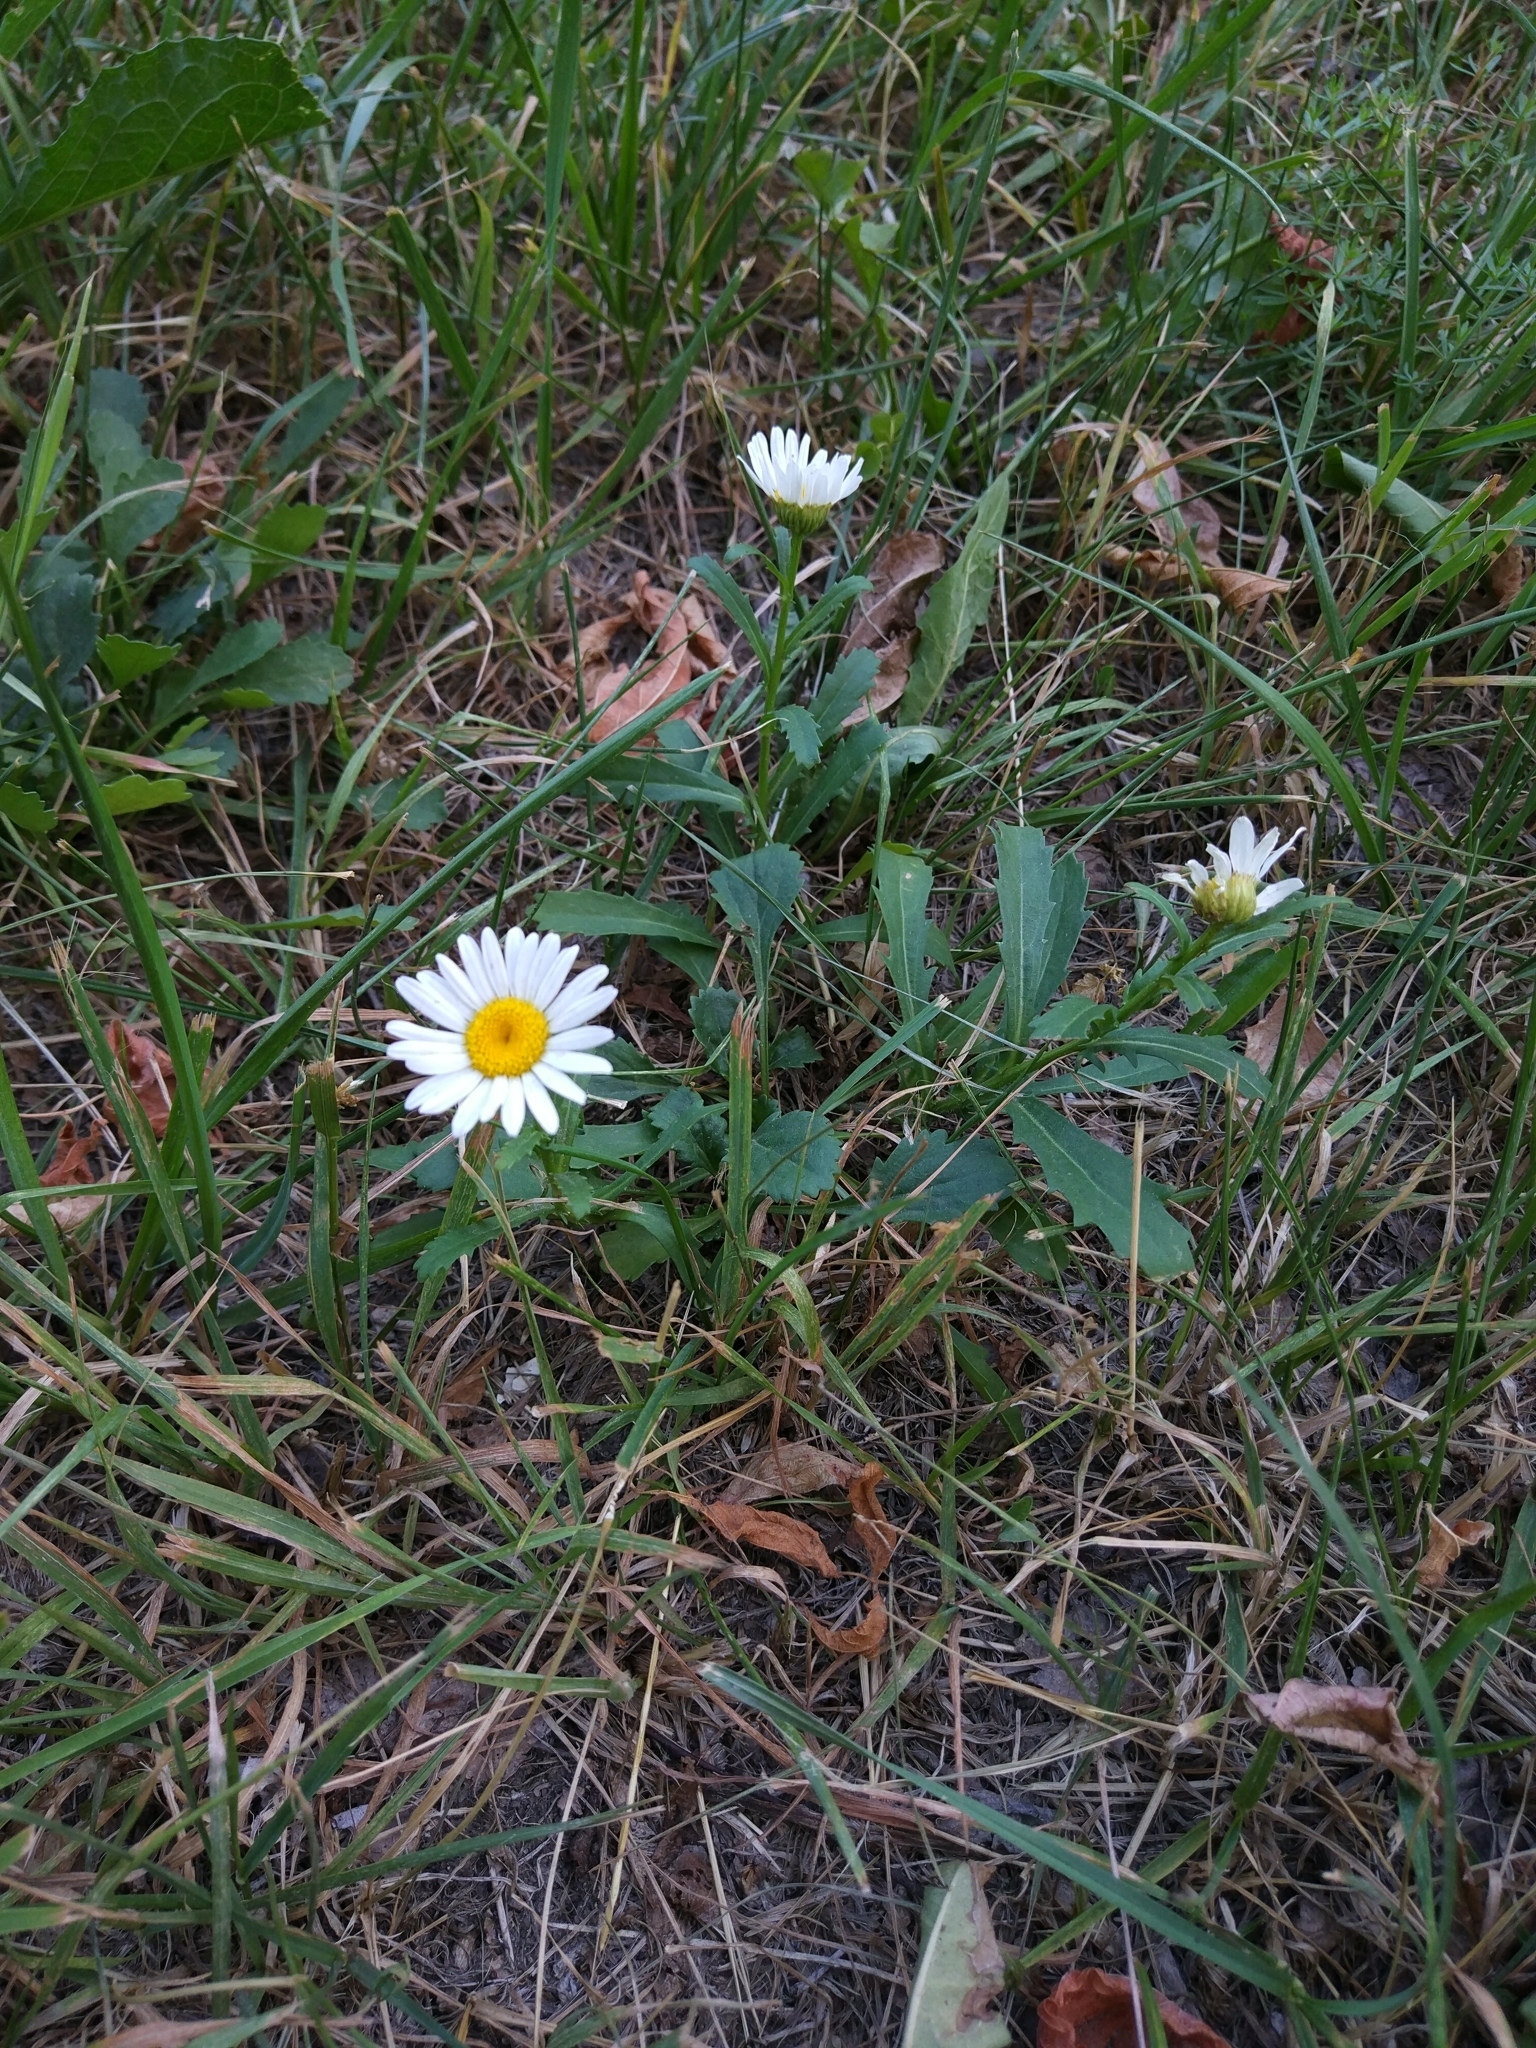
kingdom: Plantae
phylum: Tracheophyta
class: Magnoliopsida
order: Asterales
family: Asteraceae
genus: Leucanthemum
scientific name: Leucanthemum vulgare
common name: Oxeye daisy
